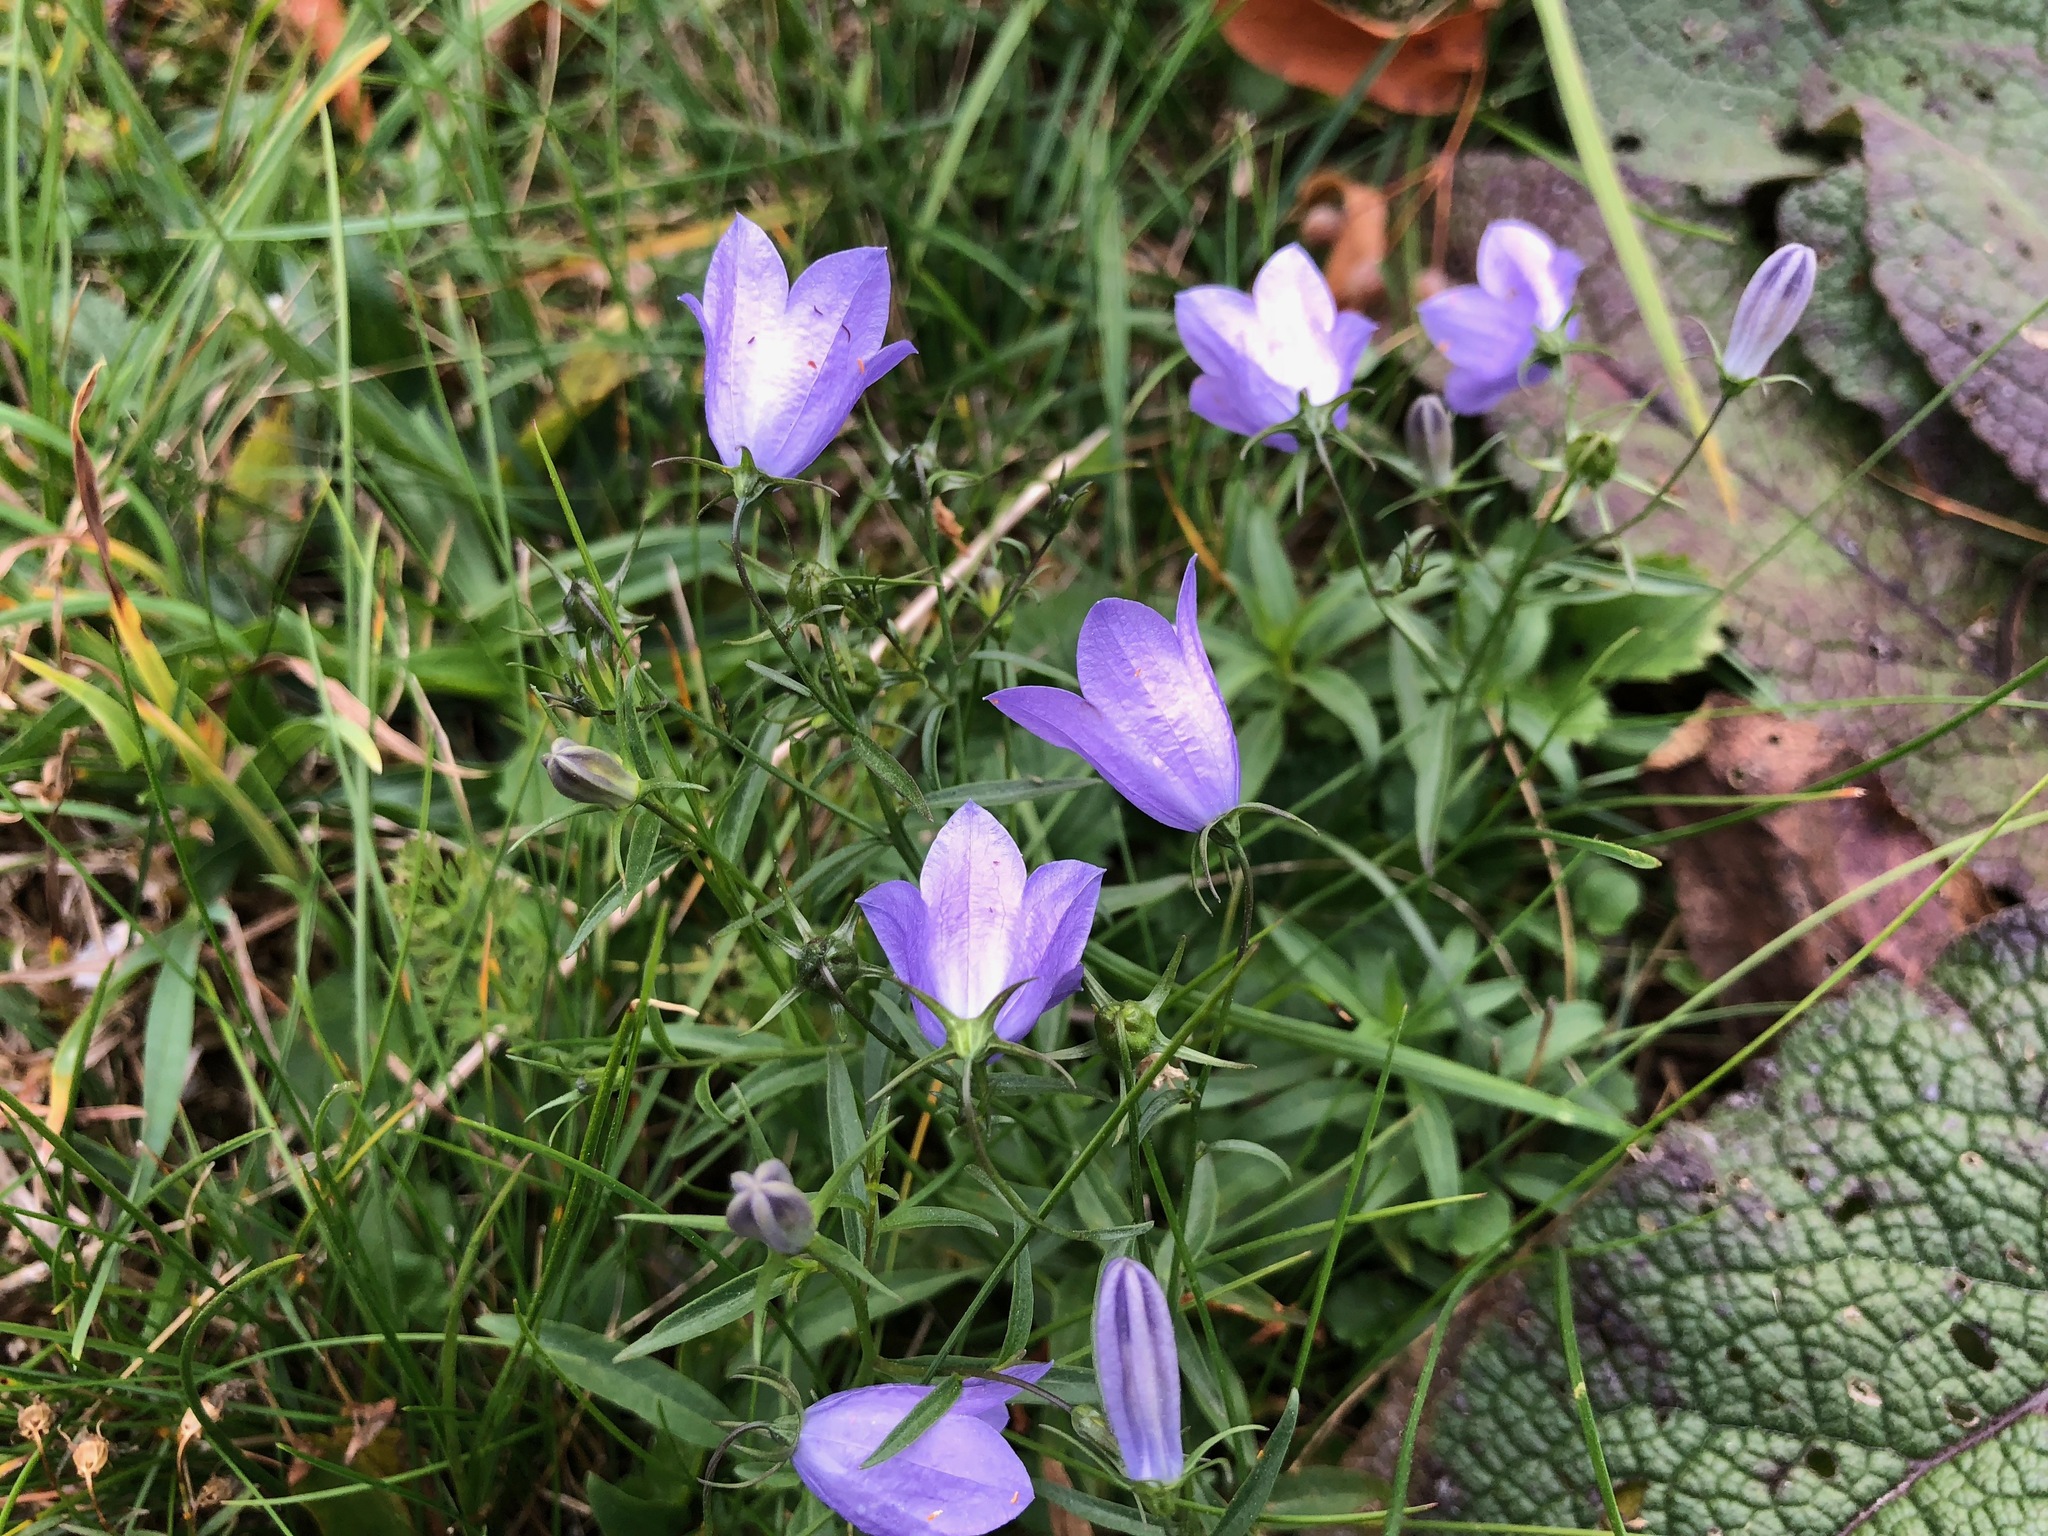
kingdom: Plantae
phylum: Tracheophyta
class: Magnoliopsida
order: Asterales
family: Campanulaceae
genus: Campanula
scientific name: Campanula rotundifolia
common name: Harebell
